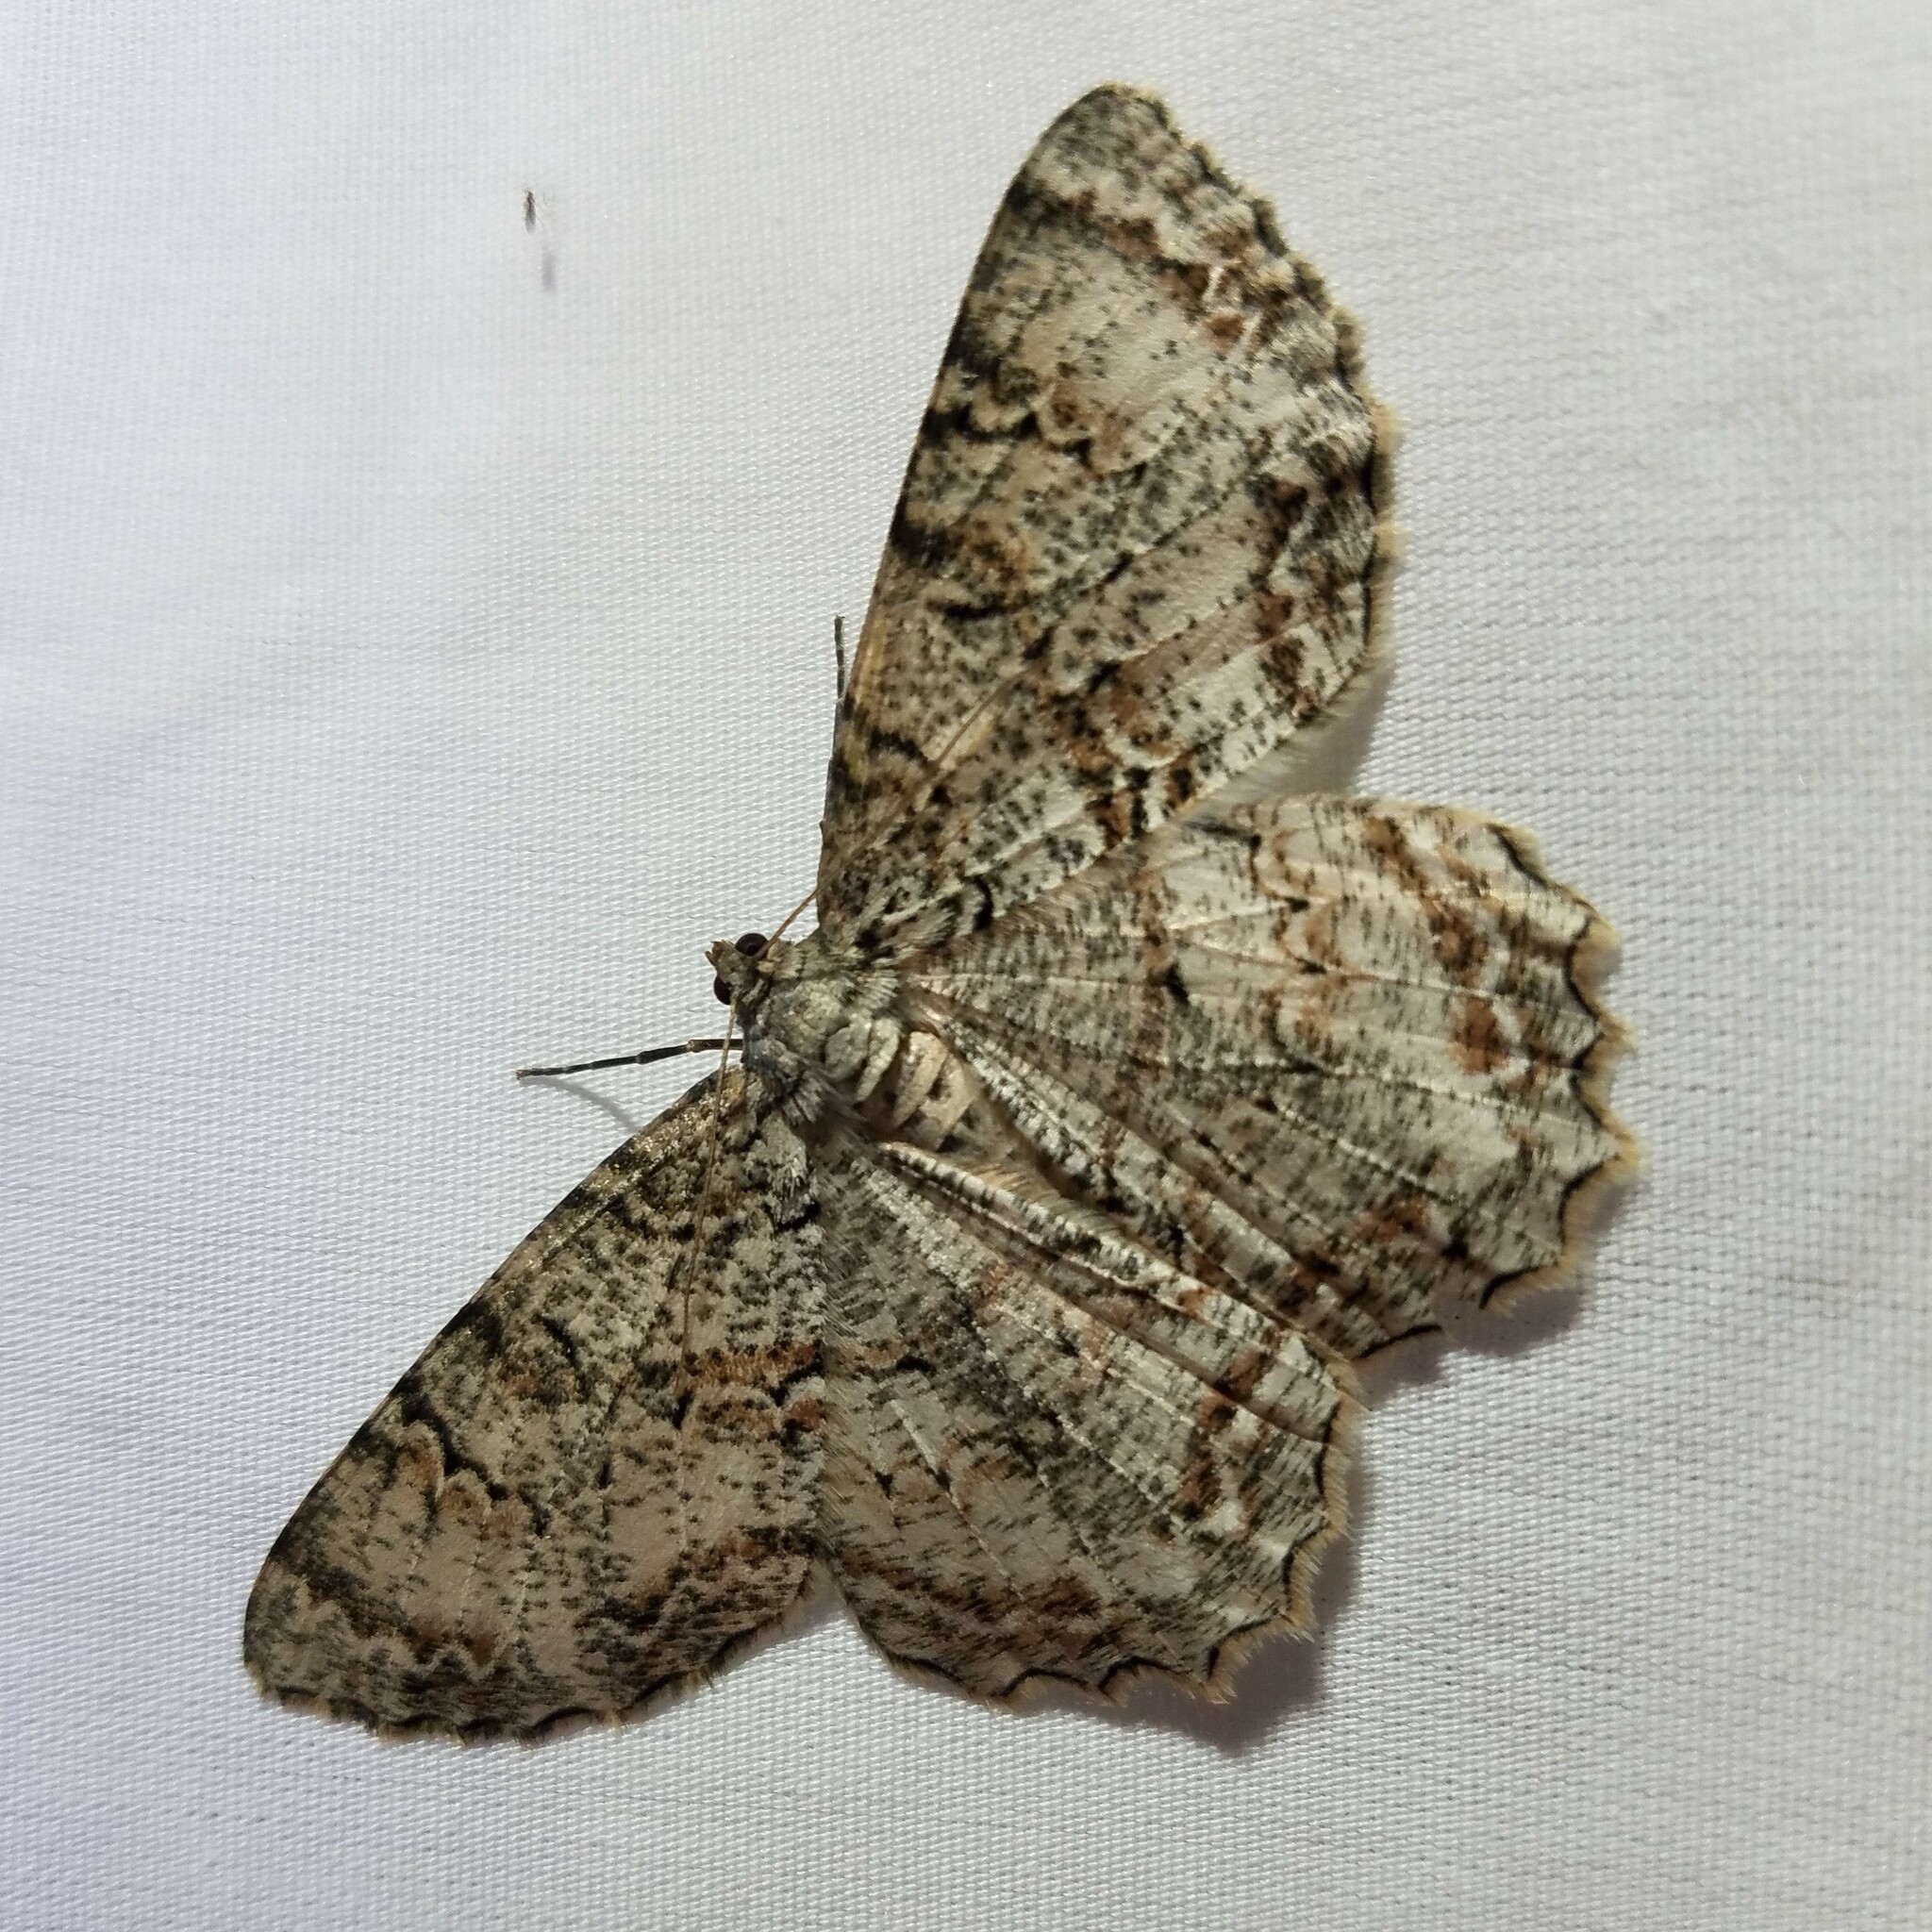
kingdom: Animalia
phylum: Arthropoda
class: Insecta
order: Lepidoptera
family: Geometridae
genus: Epimecis
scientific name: Epimecis hortaria
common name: Tulip-tree beauty
